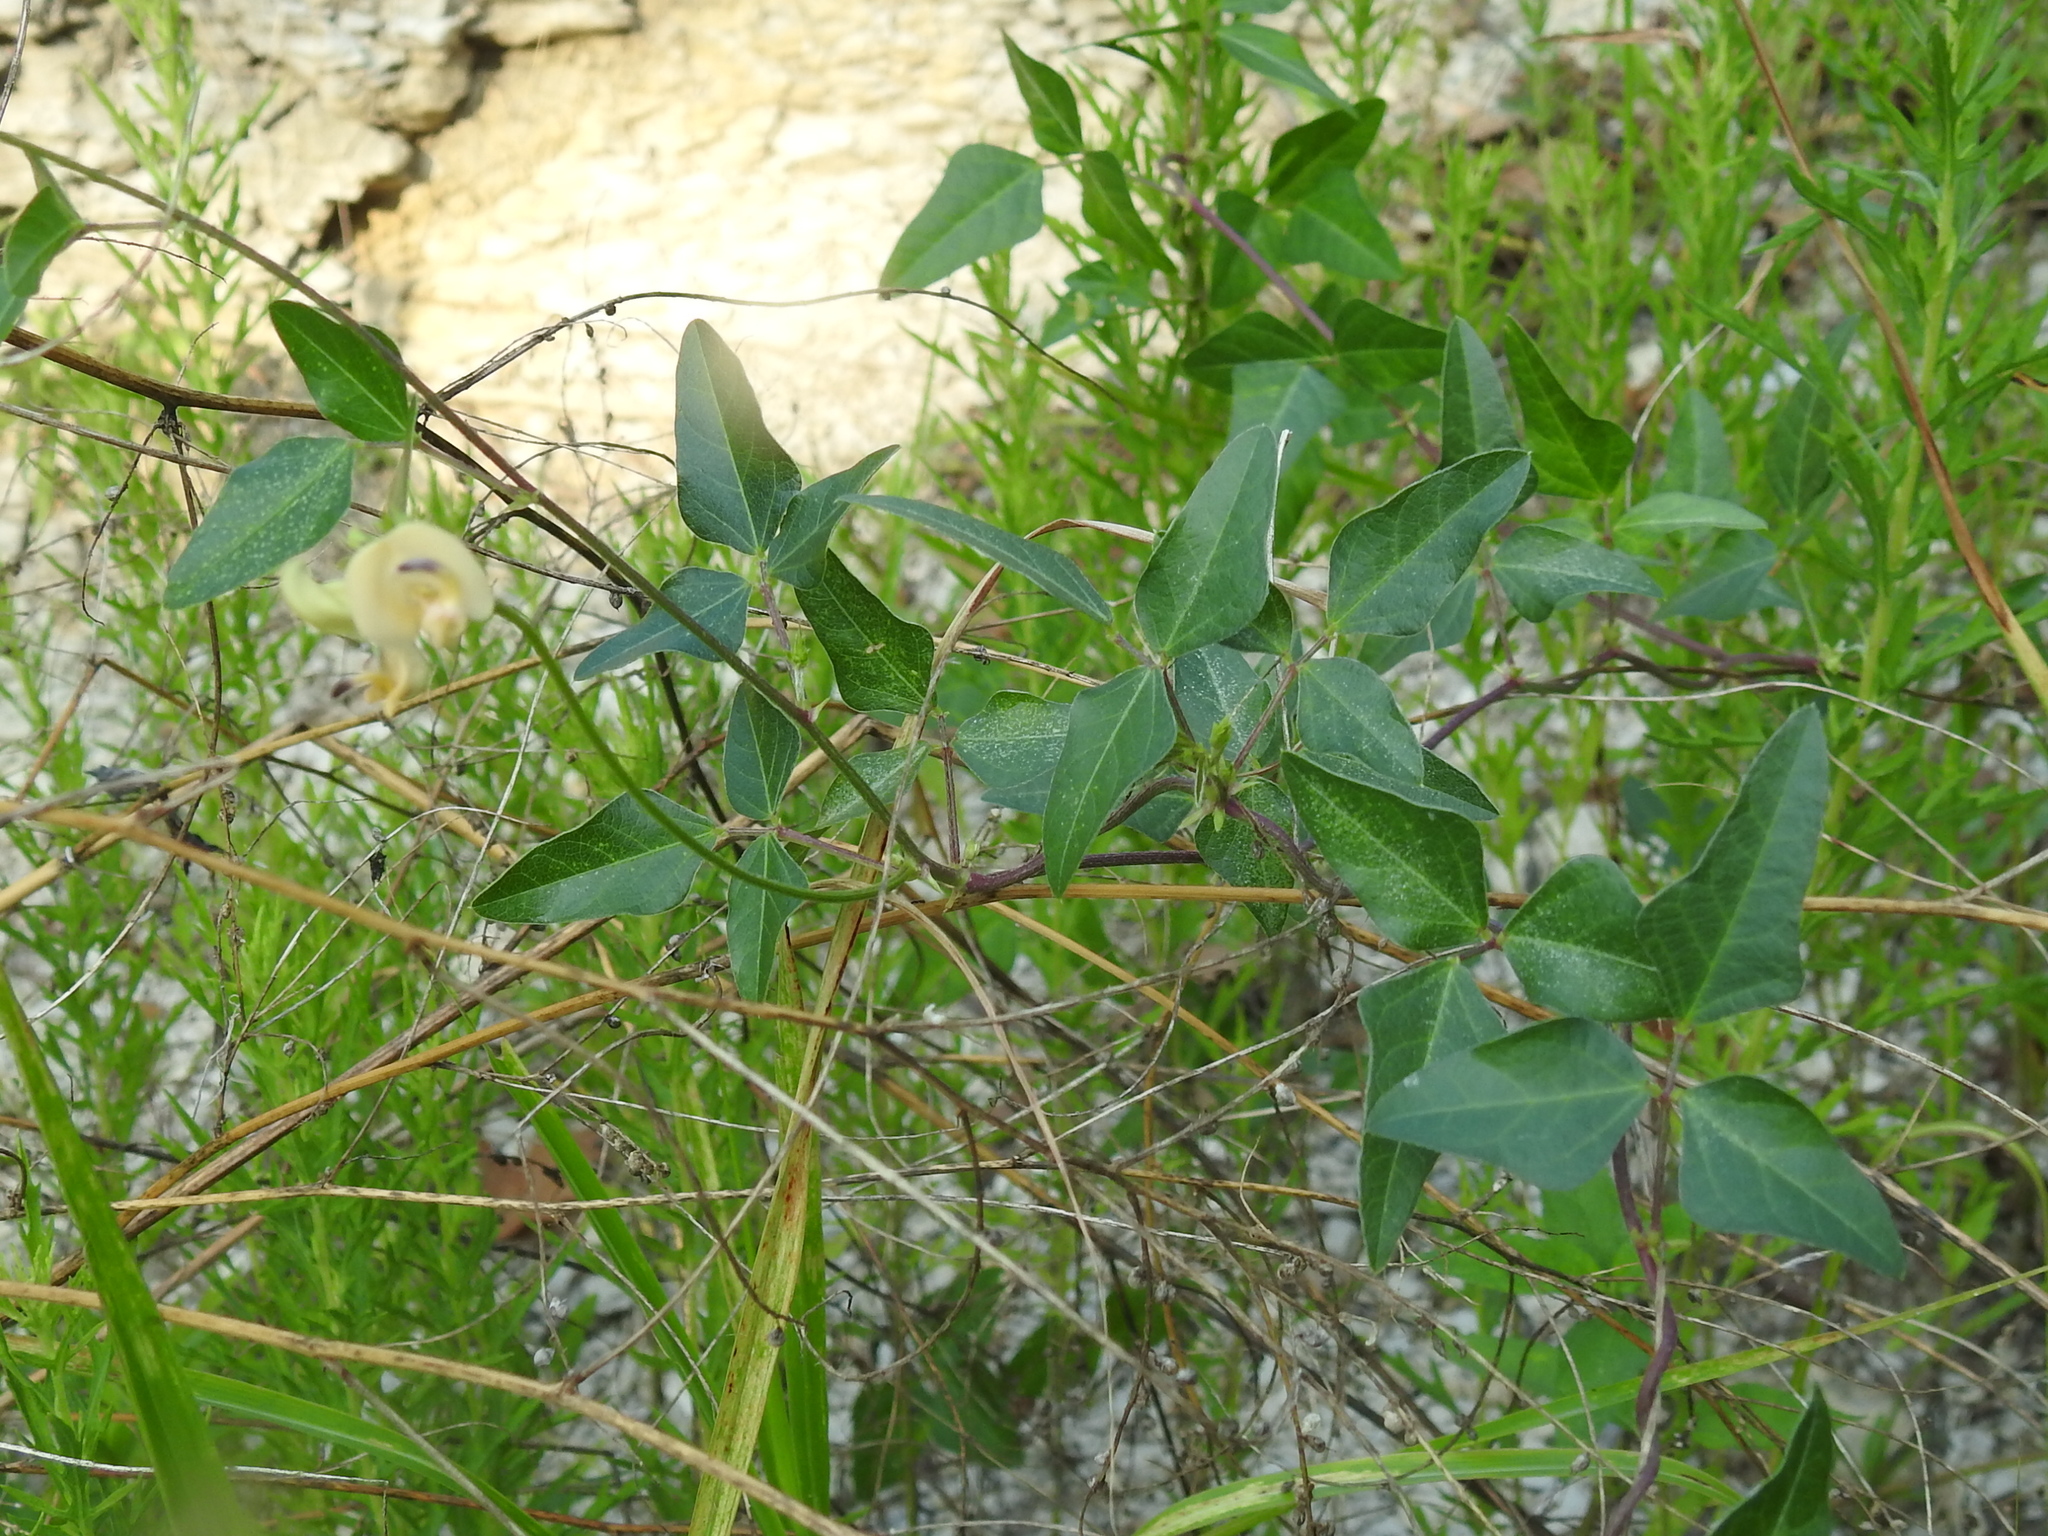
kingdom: Plantae
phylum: Tracheophyta
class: Magnoliopsida
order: Fabales
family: Fabaceae
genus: Strophostyles
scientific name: Strophostyles helvola
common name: Trailing wild bean
